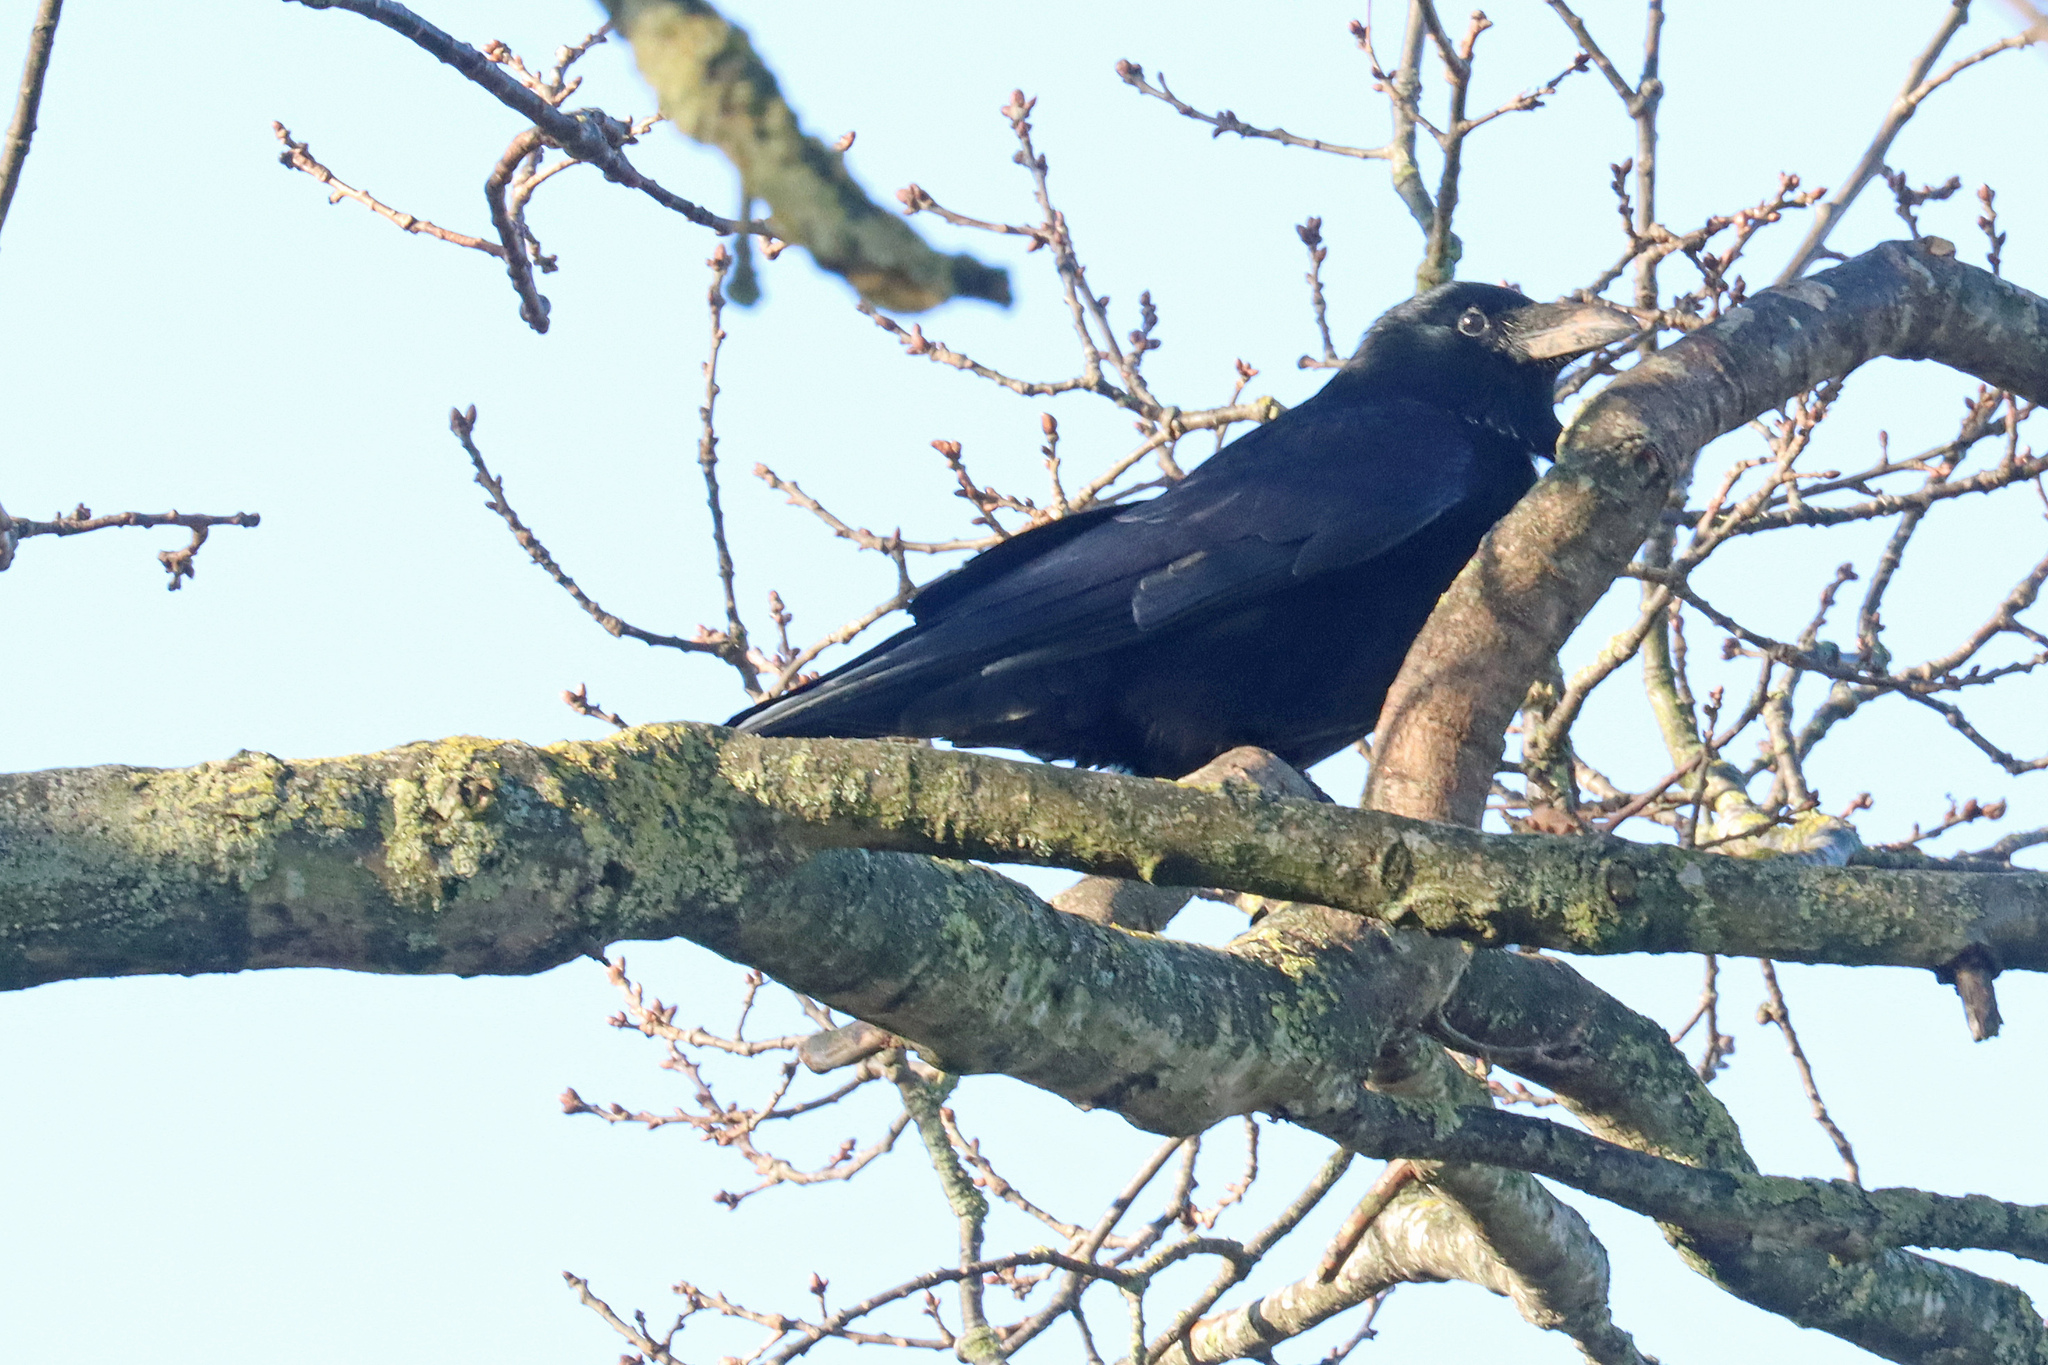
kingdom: Animalia
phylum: Chordata
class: Aves
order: Passeriformes
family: Corvidae
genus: Corvus
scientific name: Corvus corone
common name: Carrion crow
